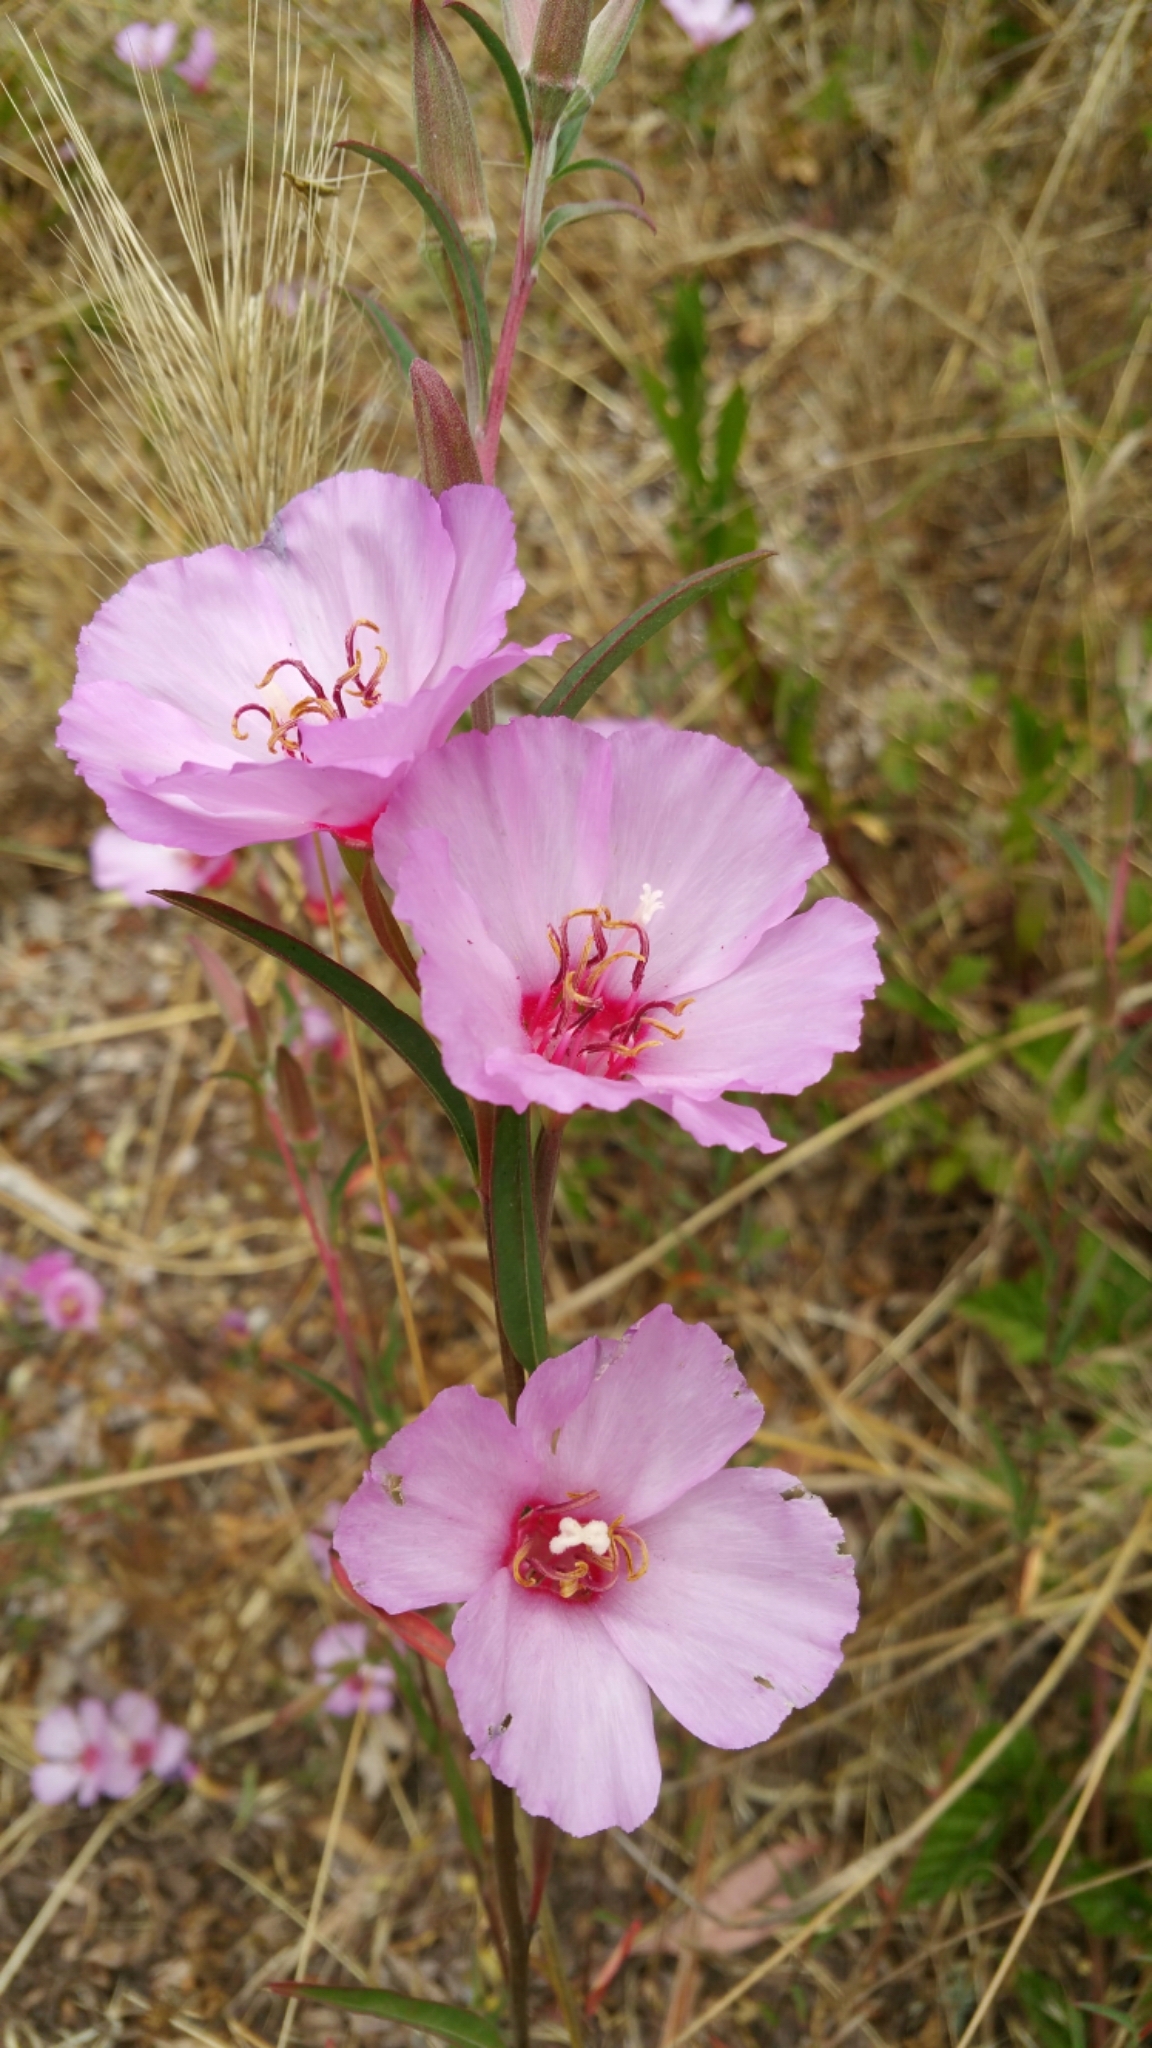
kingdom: Plantae
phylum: Tracheophyta
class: Magnoliopsida
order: Myrtales
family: Onagraceae
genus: Clarkia
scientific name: Clarkia rubicunda
